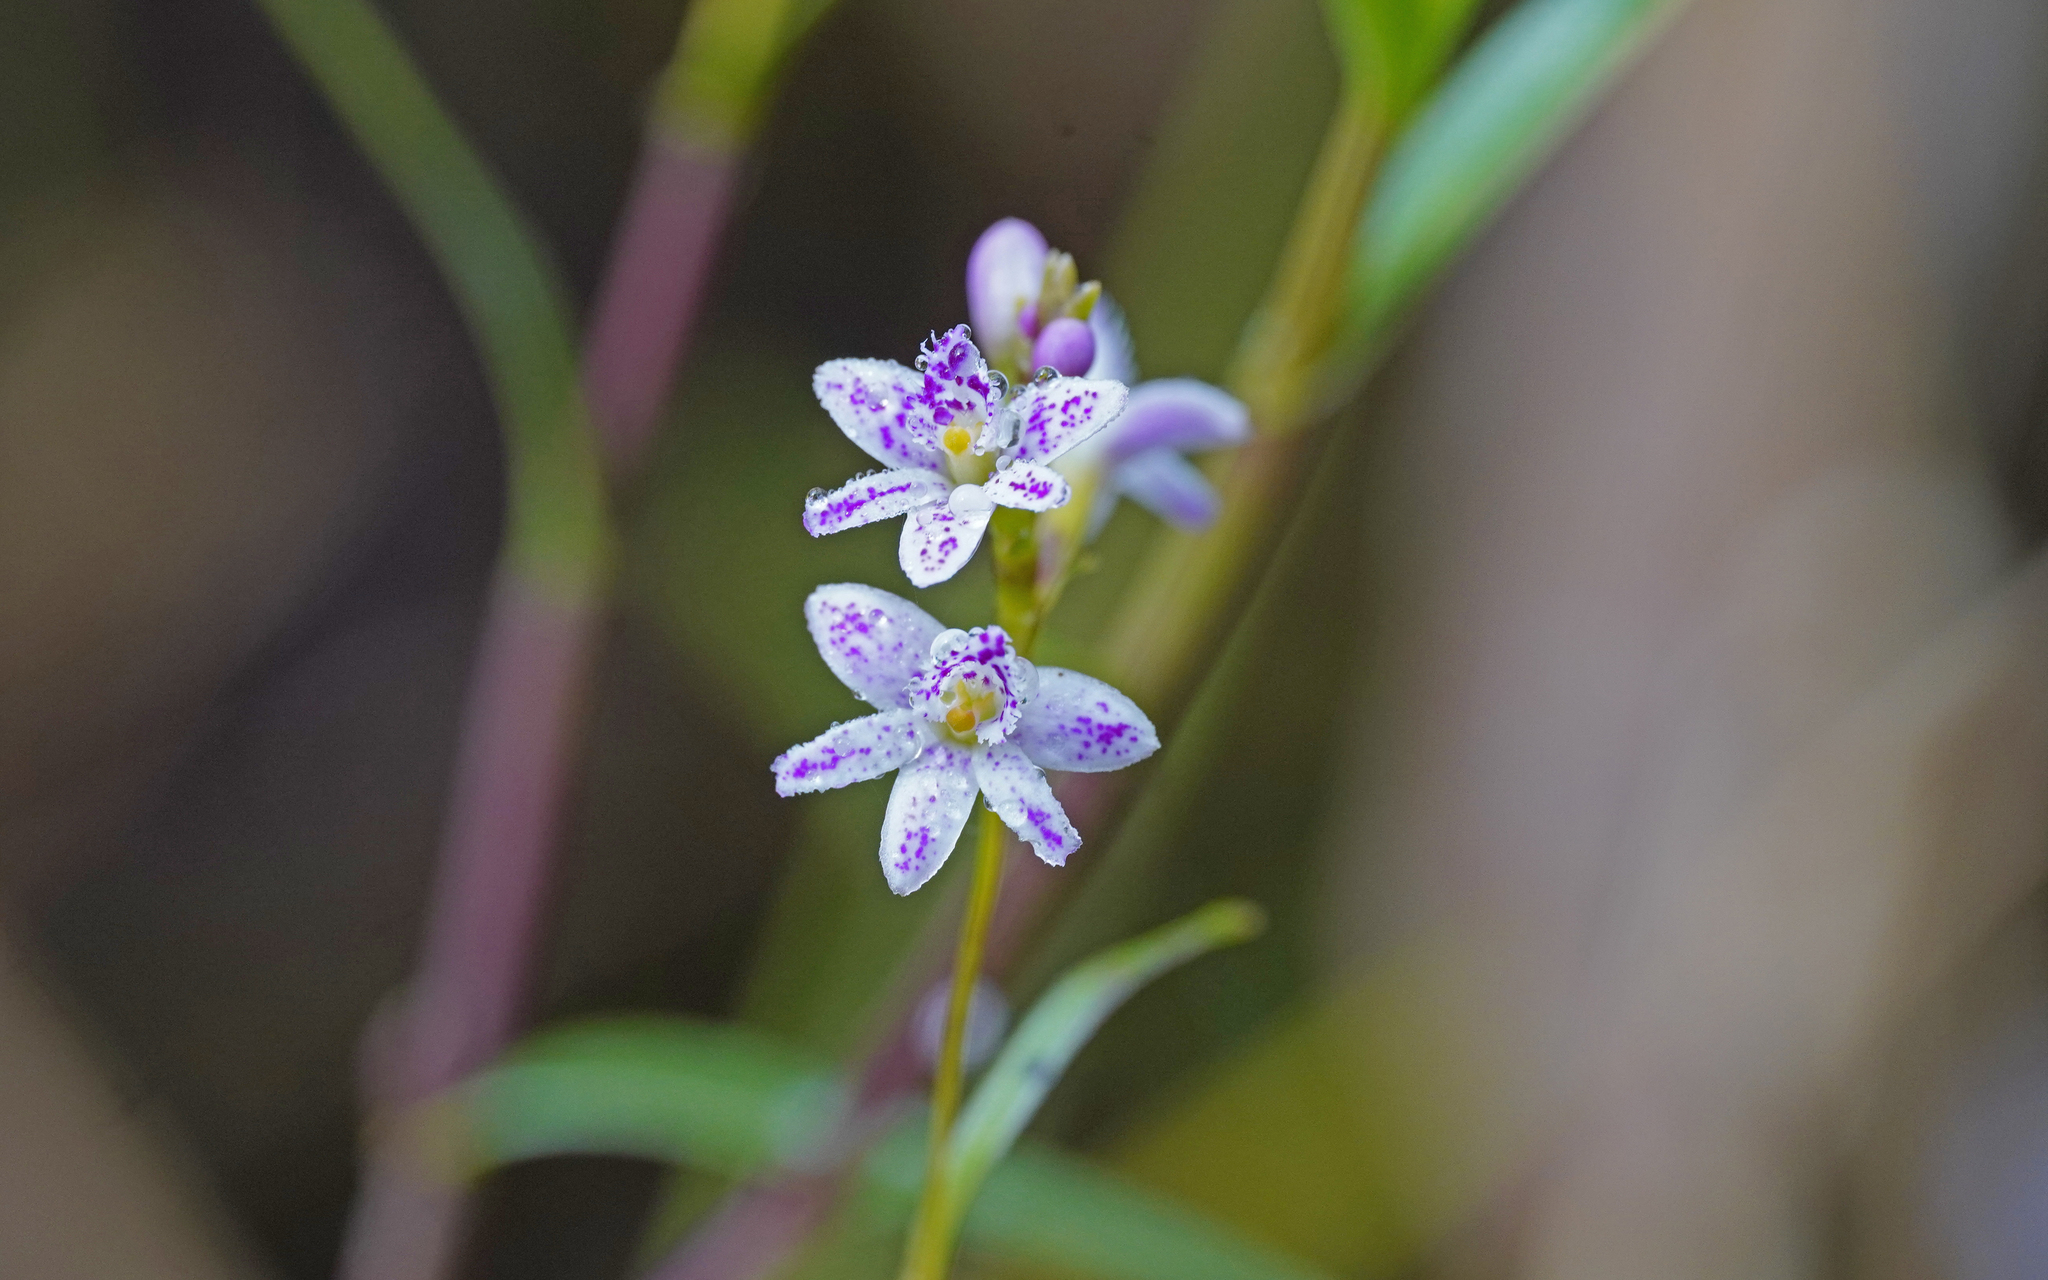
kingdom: Plantae
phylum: Tracheophyta
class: Liliopsida
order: Asparagales
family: Orchidaceae
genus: Epidendrum
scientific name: Epidendrum fimbriatum
